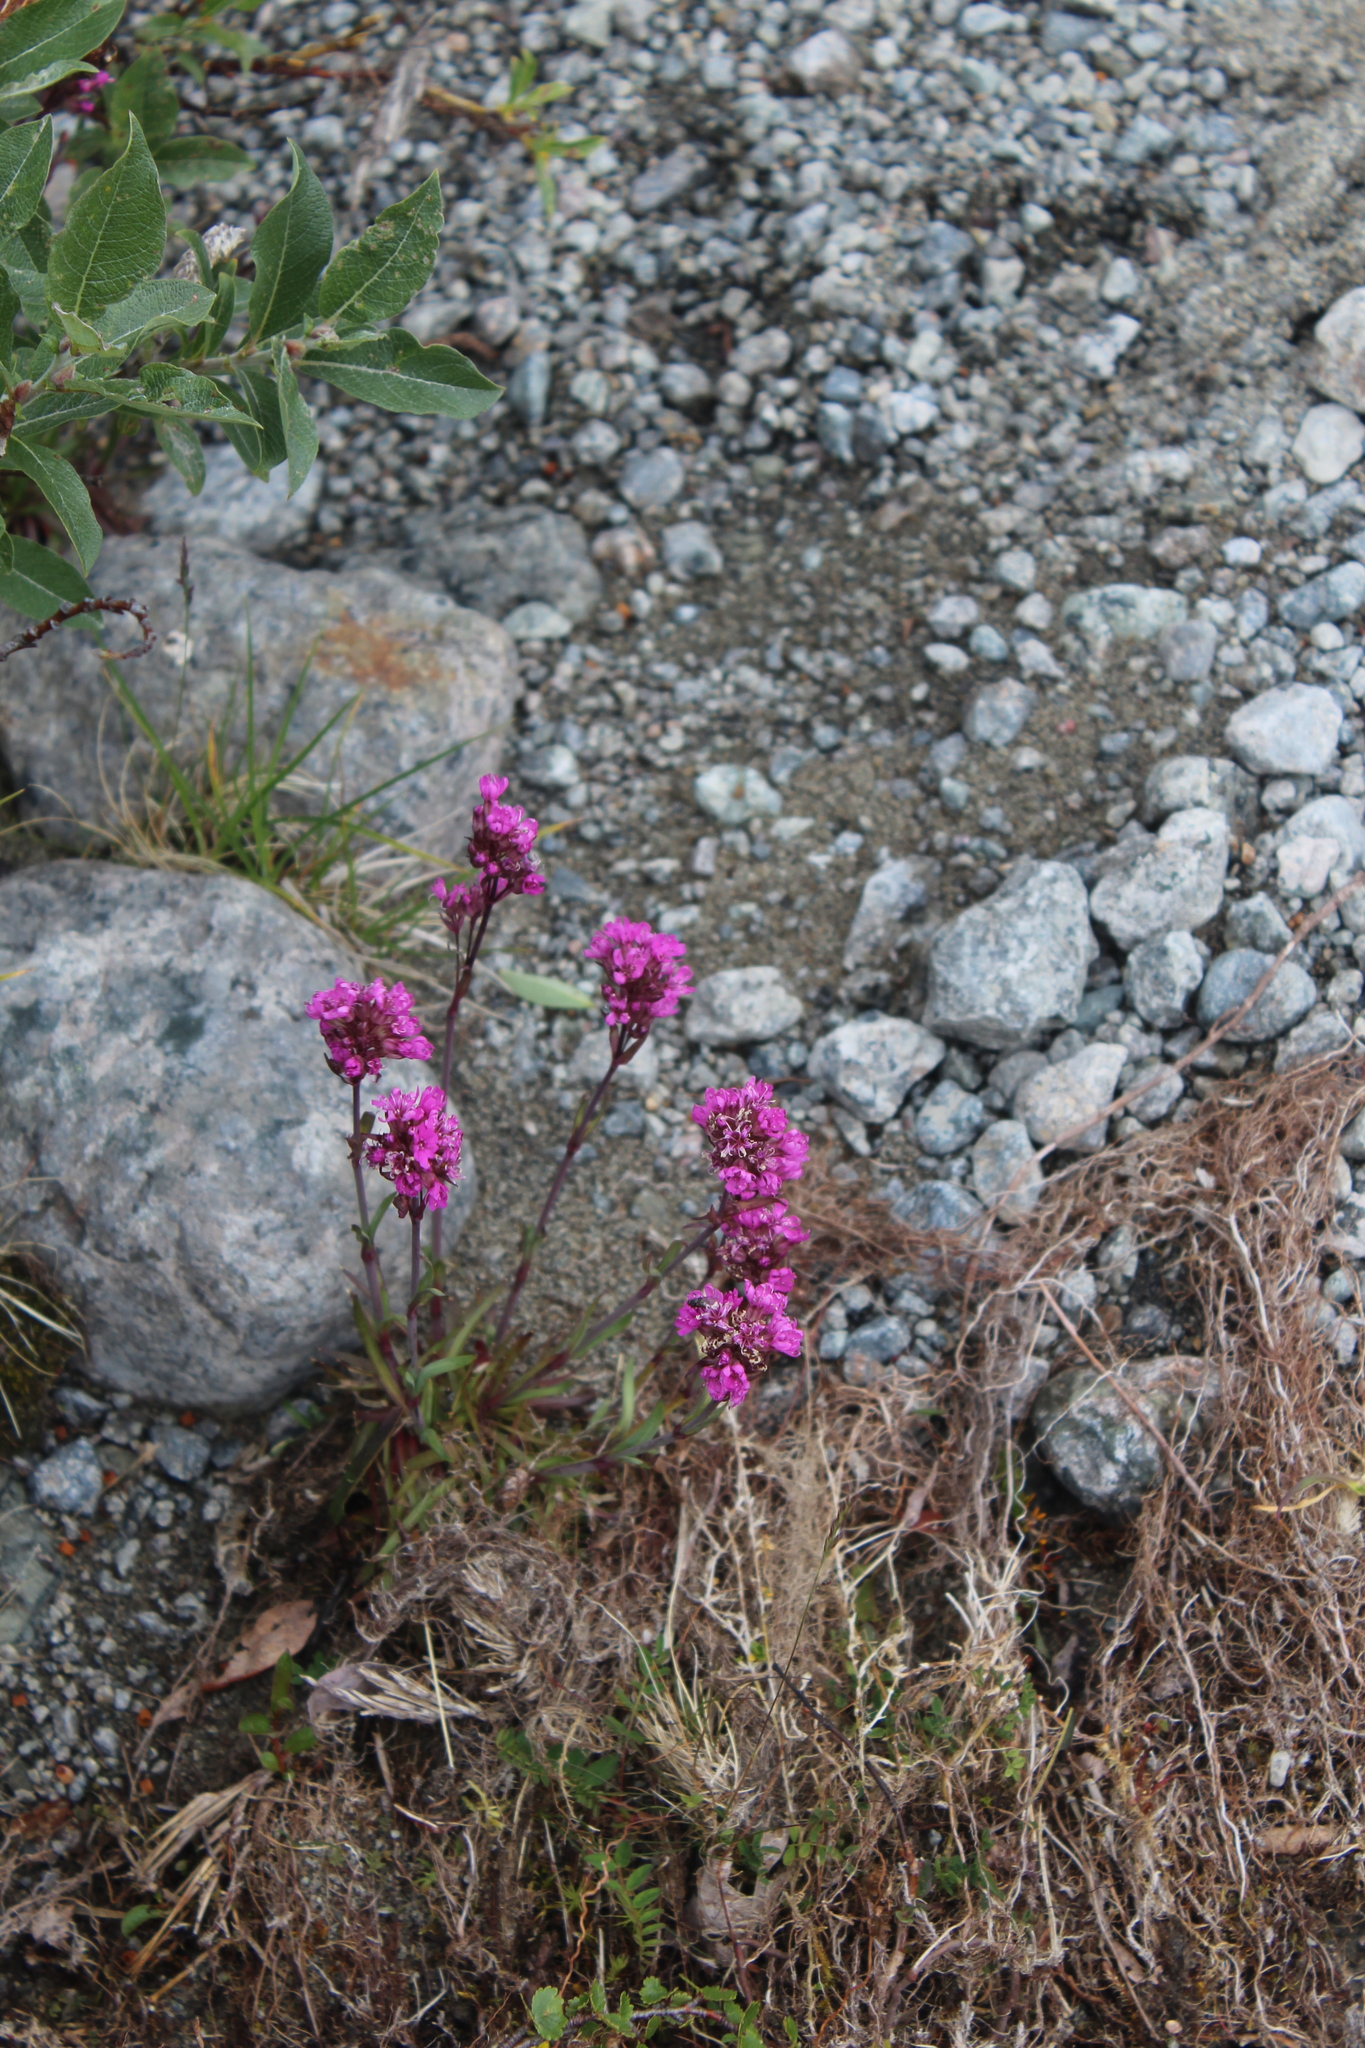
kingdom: Plantae
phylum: Tracheophyta
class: Magnoliopsida
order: Caryophyllales
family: Caryophyllaceae
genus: Viscaria
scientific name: Viscaria alpina
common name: Alpine campion
